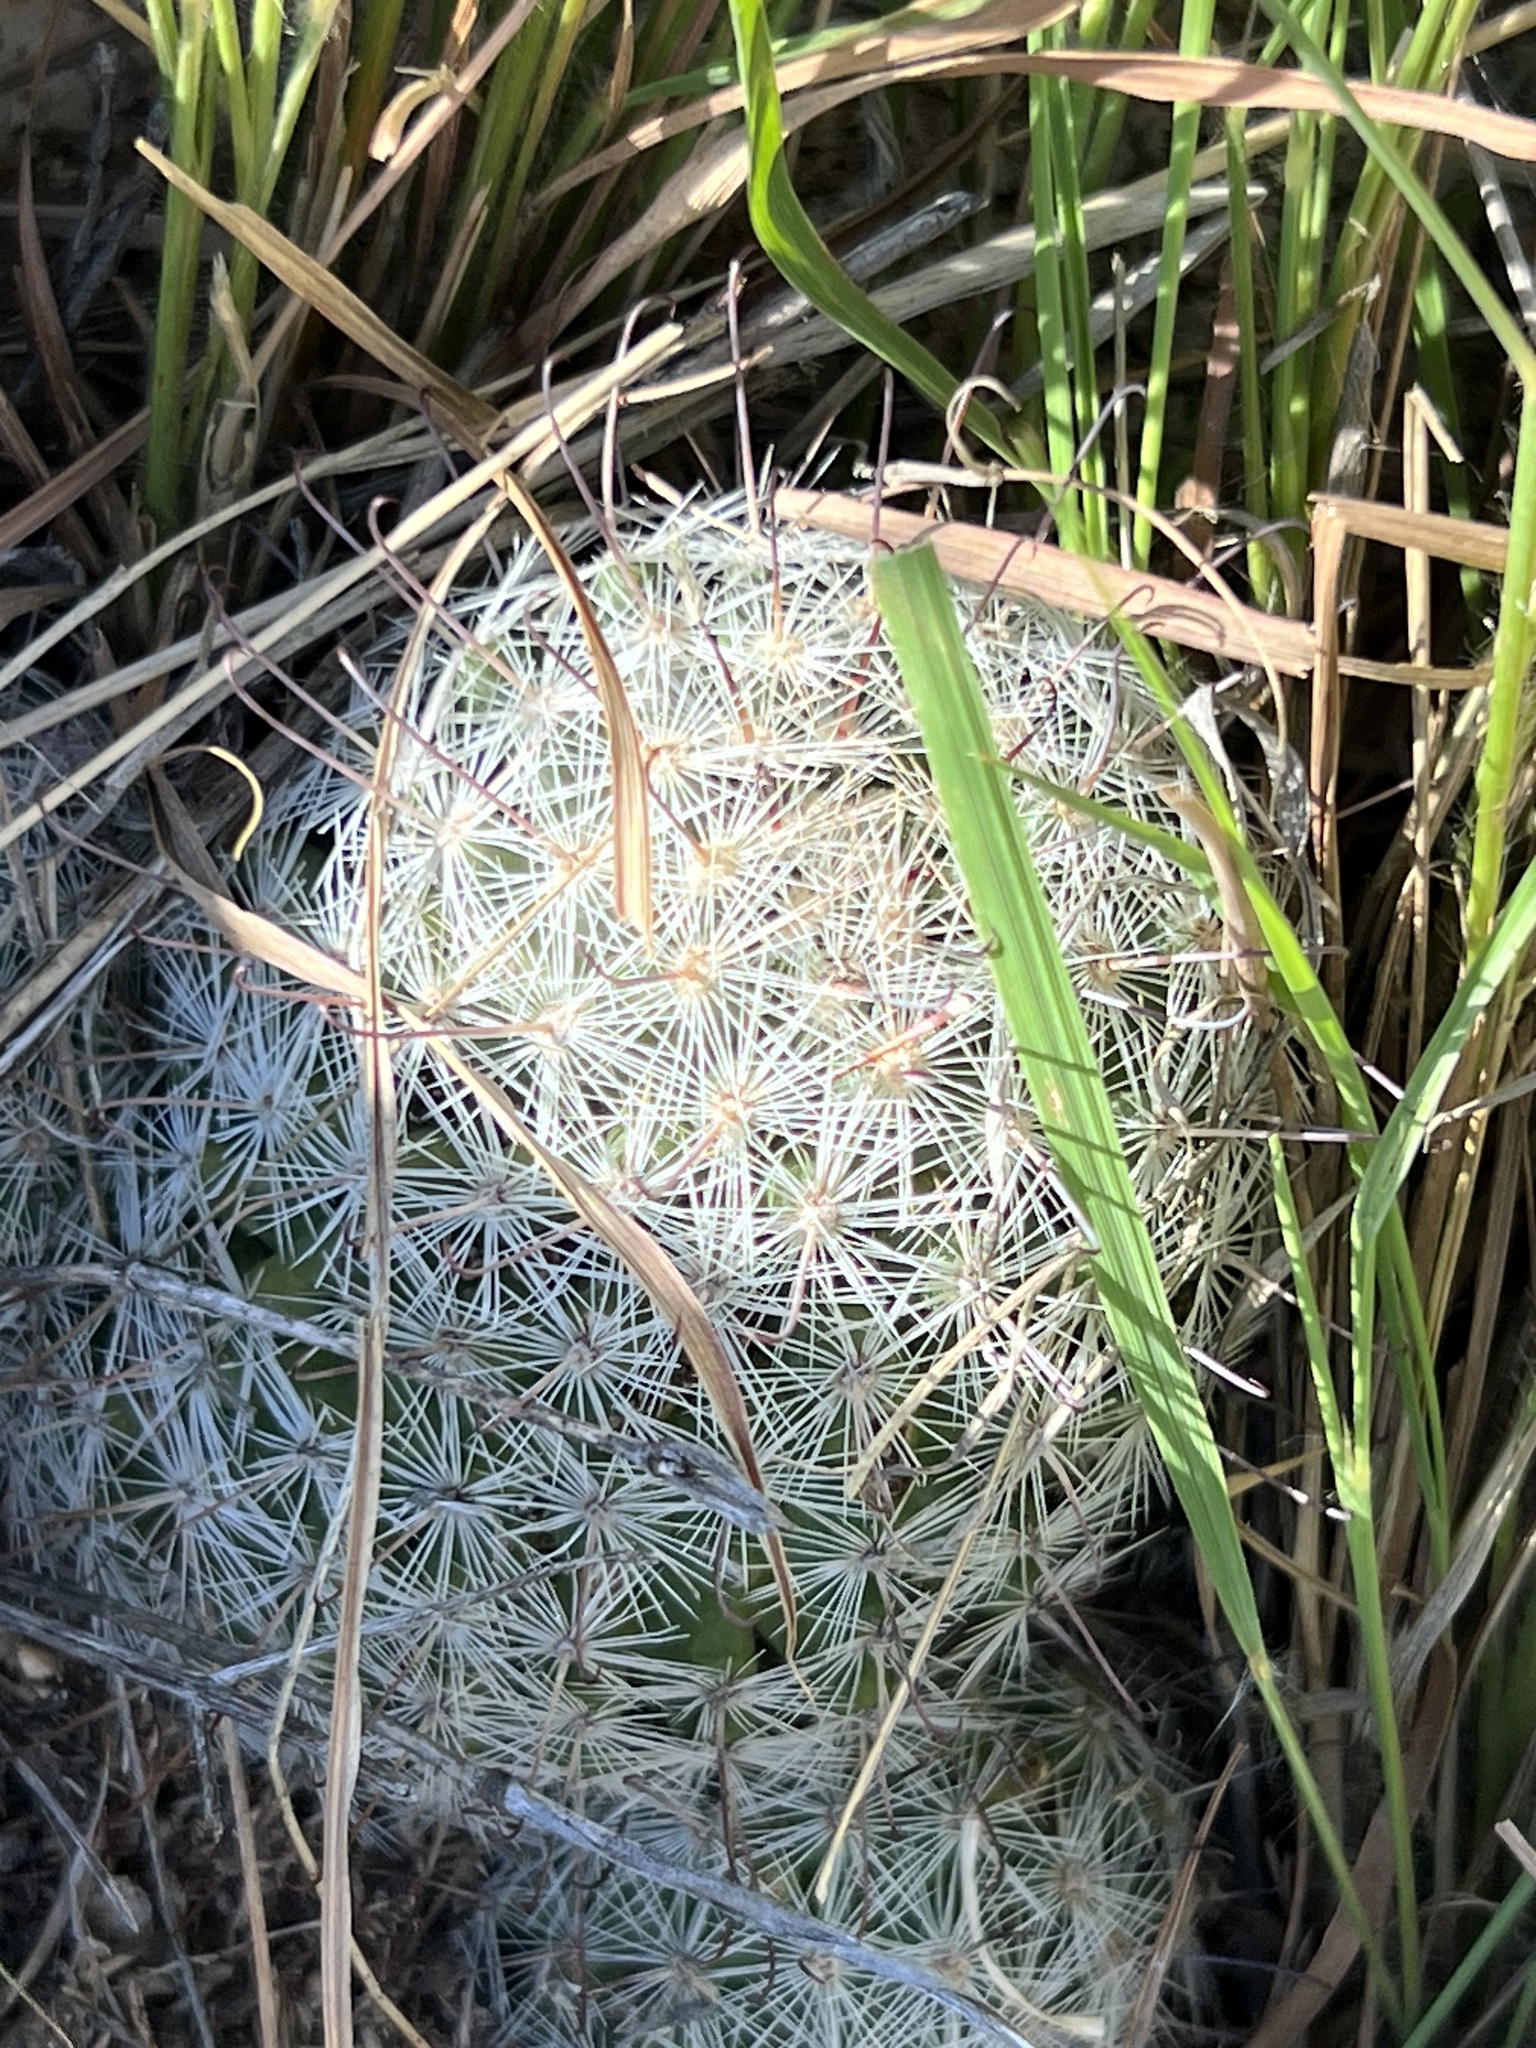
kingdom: Plantae
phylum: Tracheophyta
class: Magnoliopsida
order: Caryophyllales
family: Cactaceae
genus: Cochemiea
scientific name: Cochemiea grahamii
